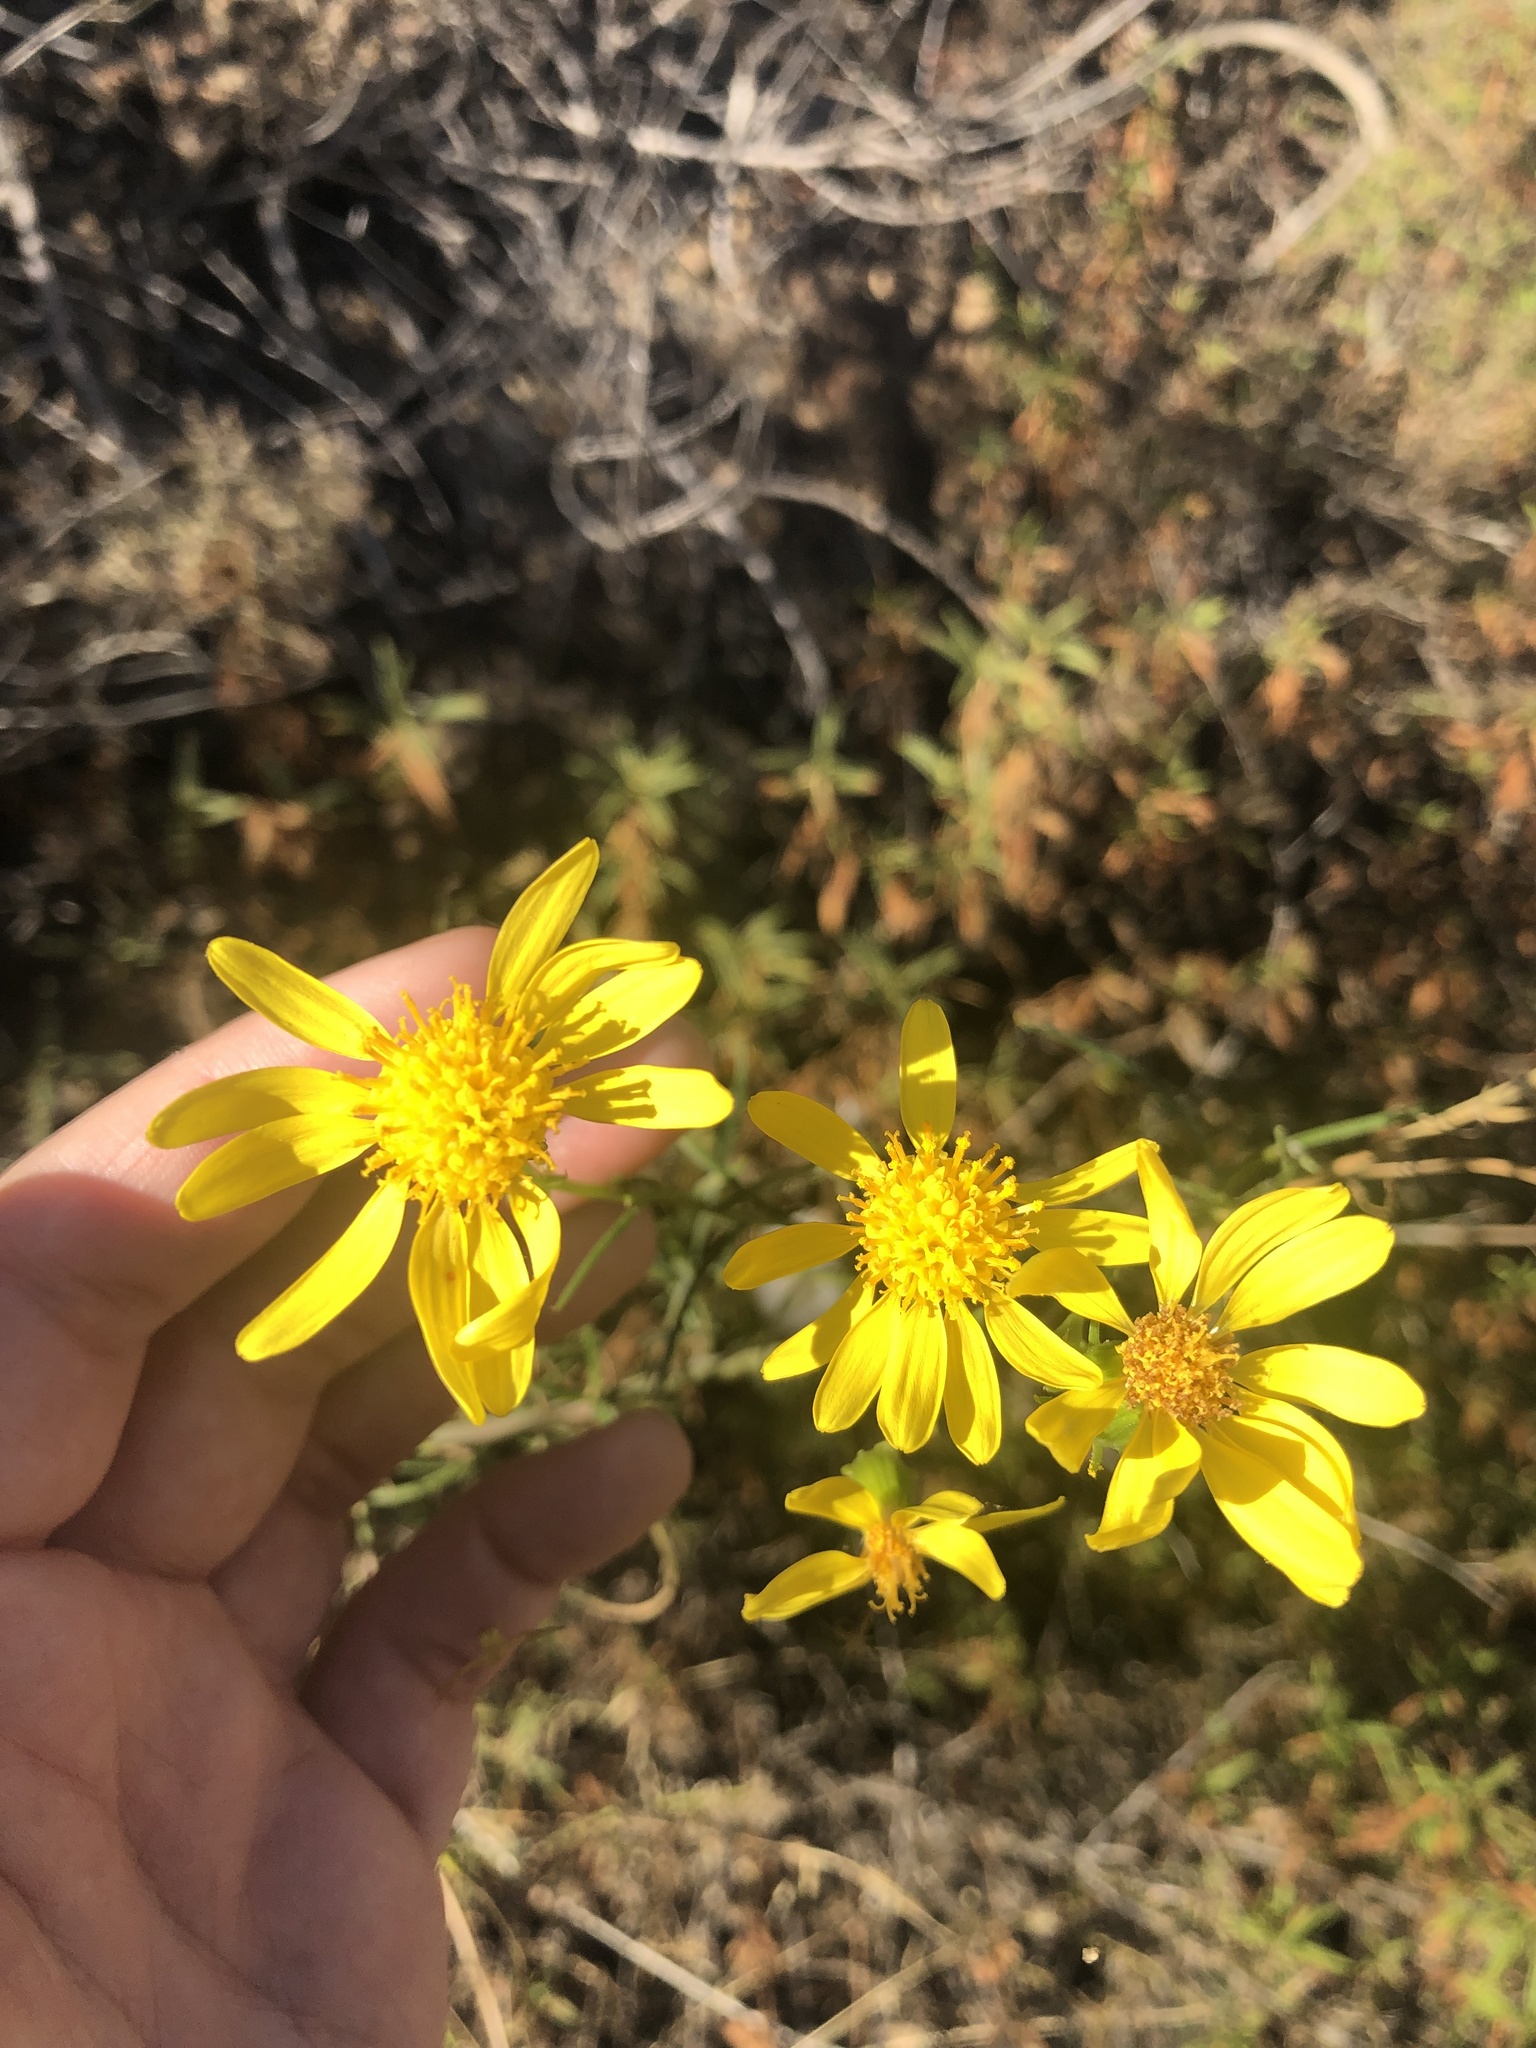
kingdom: Plantae
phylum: Tracheophyta
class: Magnoliopsida
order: Asterales
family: Asteraceae
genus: Senecio
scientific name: Senecio flaccidus
